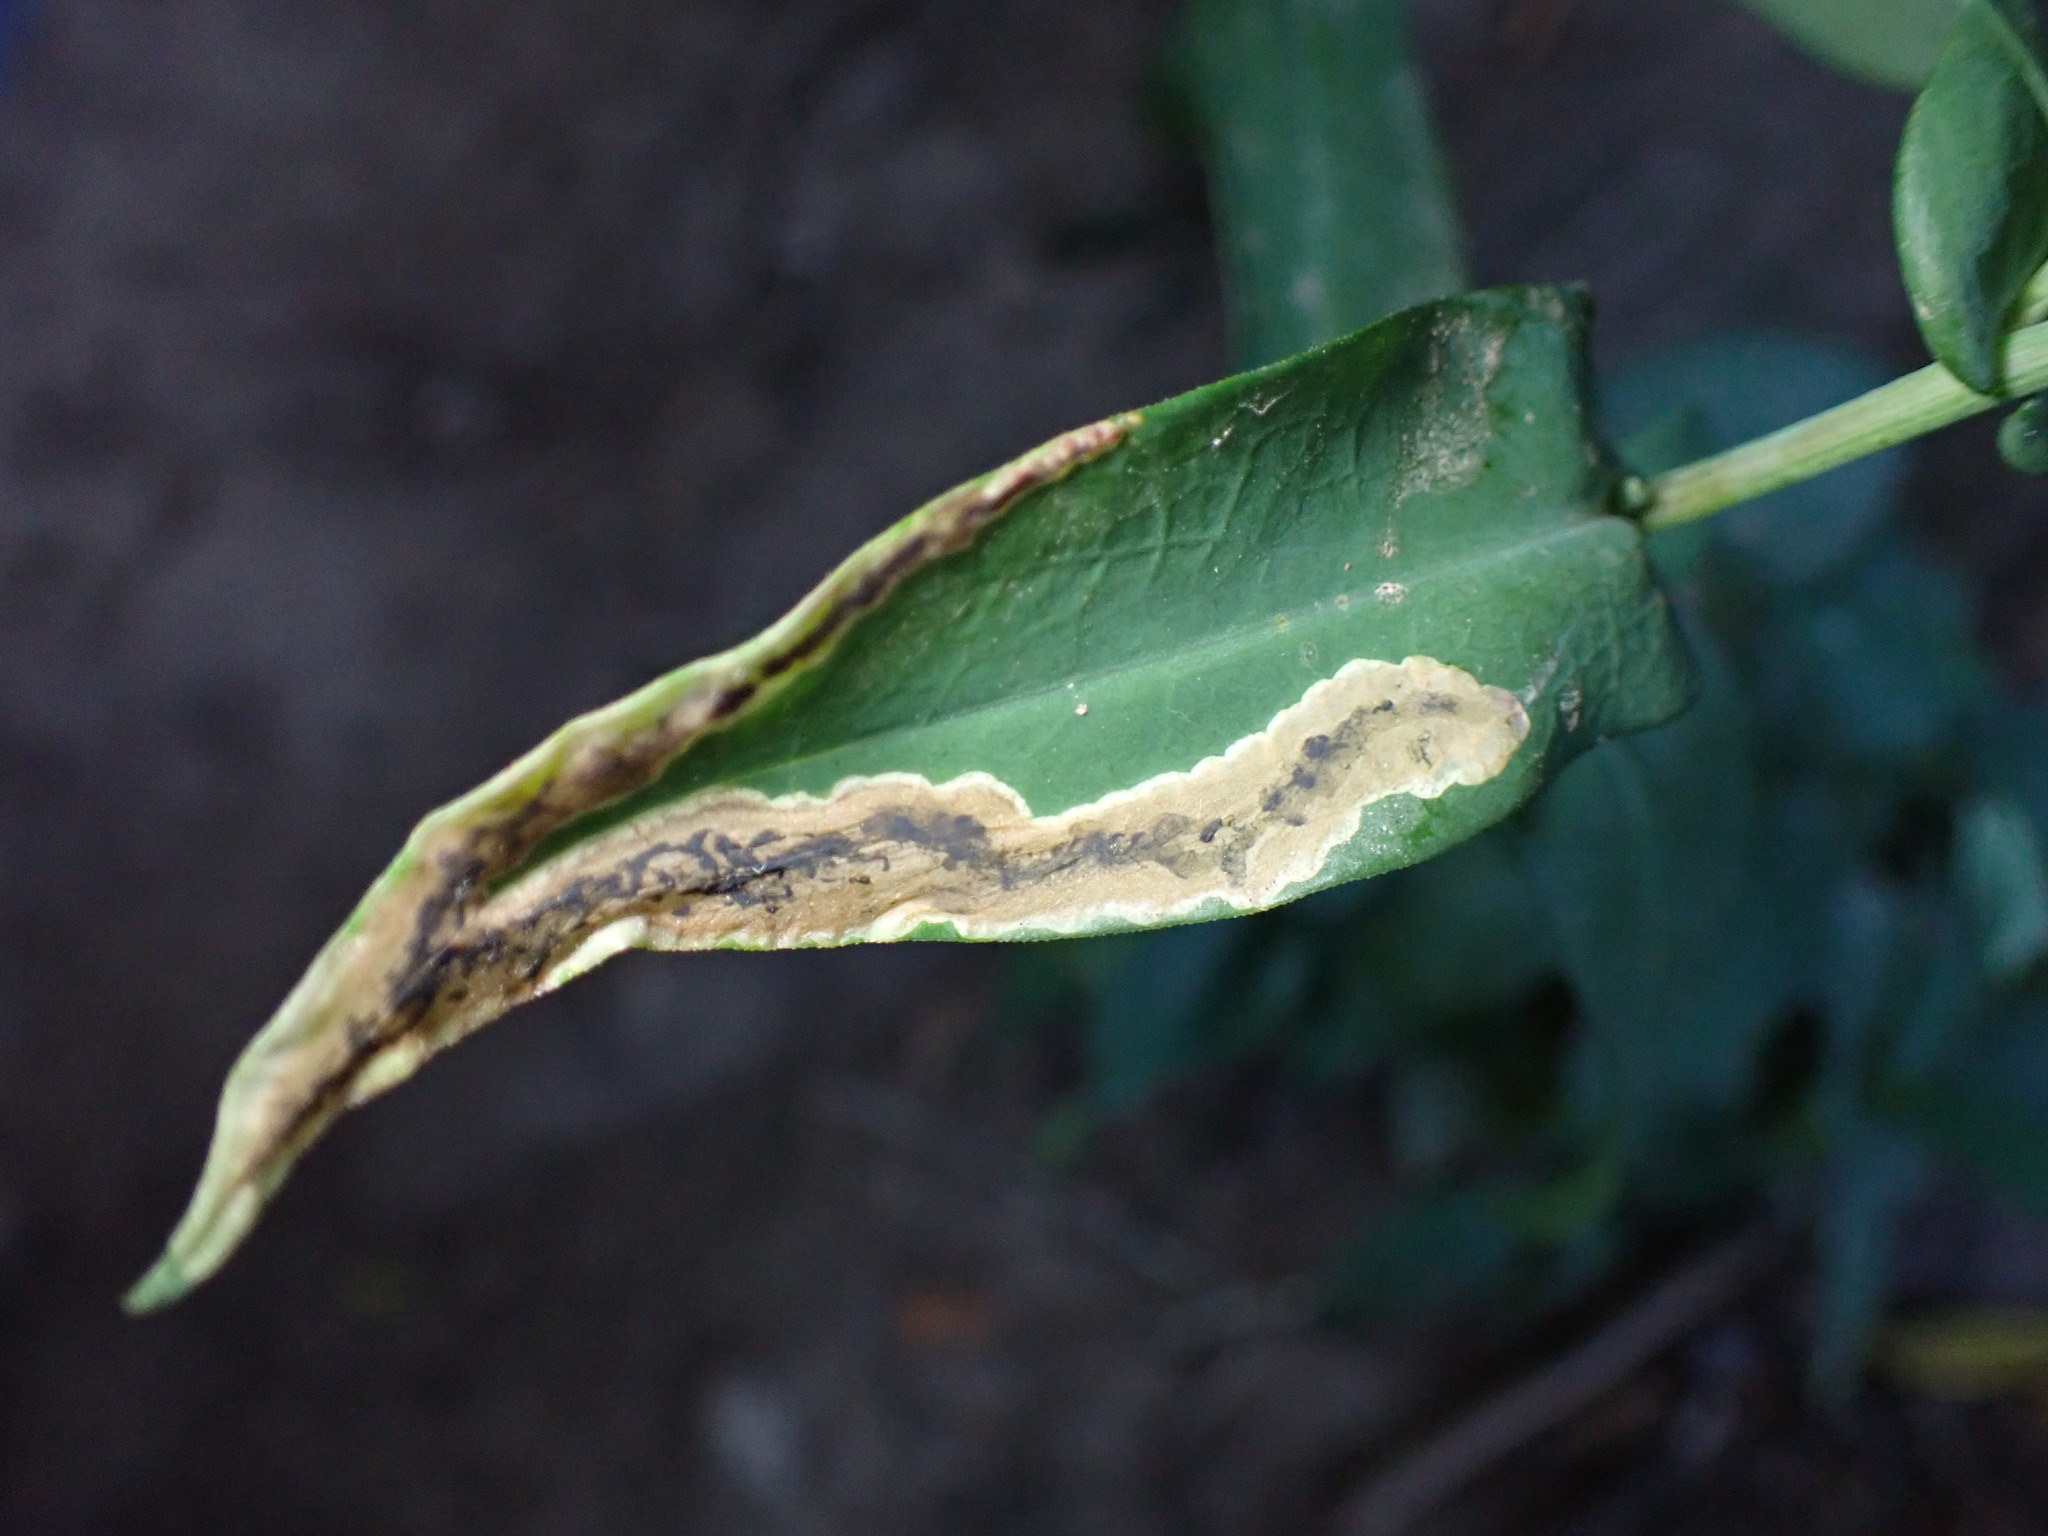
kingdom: Animalia
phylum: Arthropoda
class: Insecta
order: Diptera
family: Agromyzidae
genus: Nemorimyza
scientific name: Nemorimyza posticata
